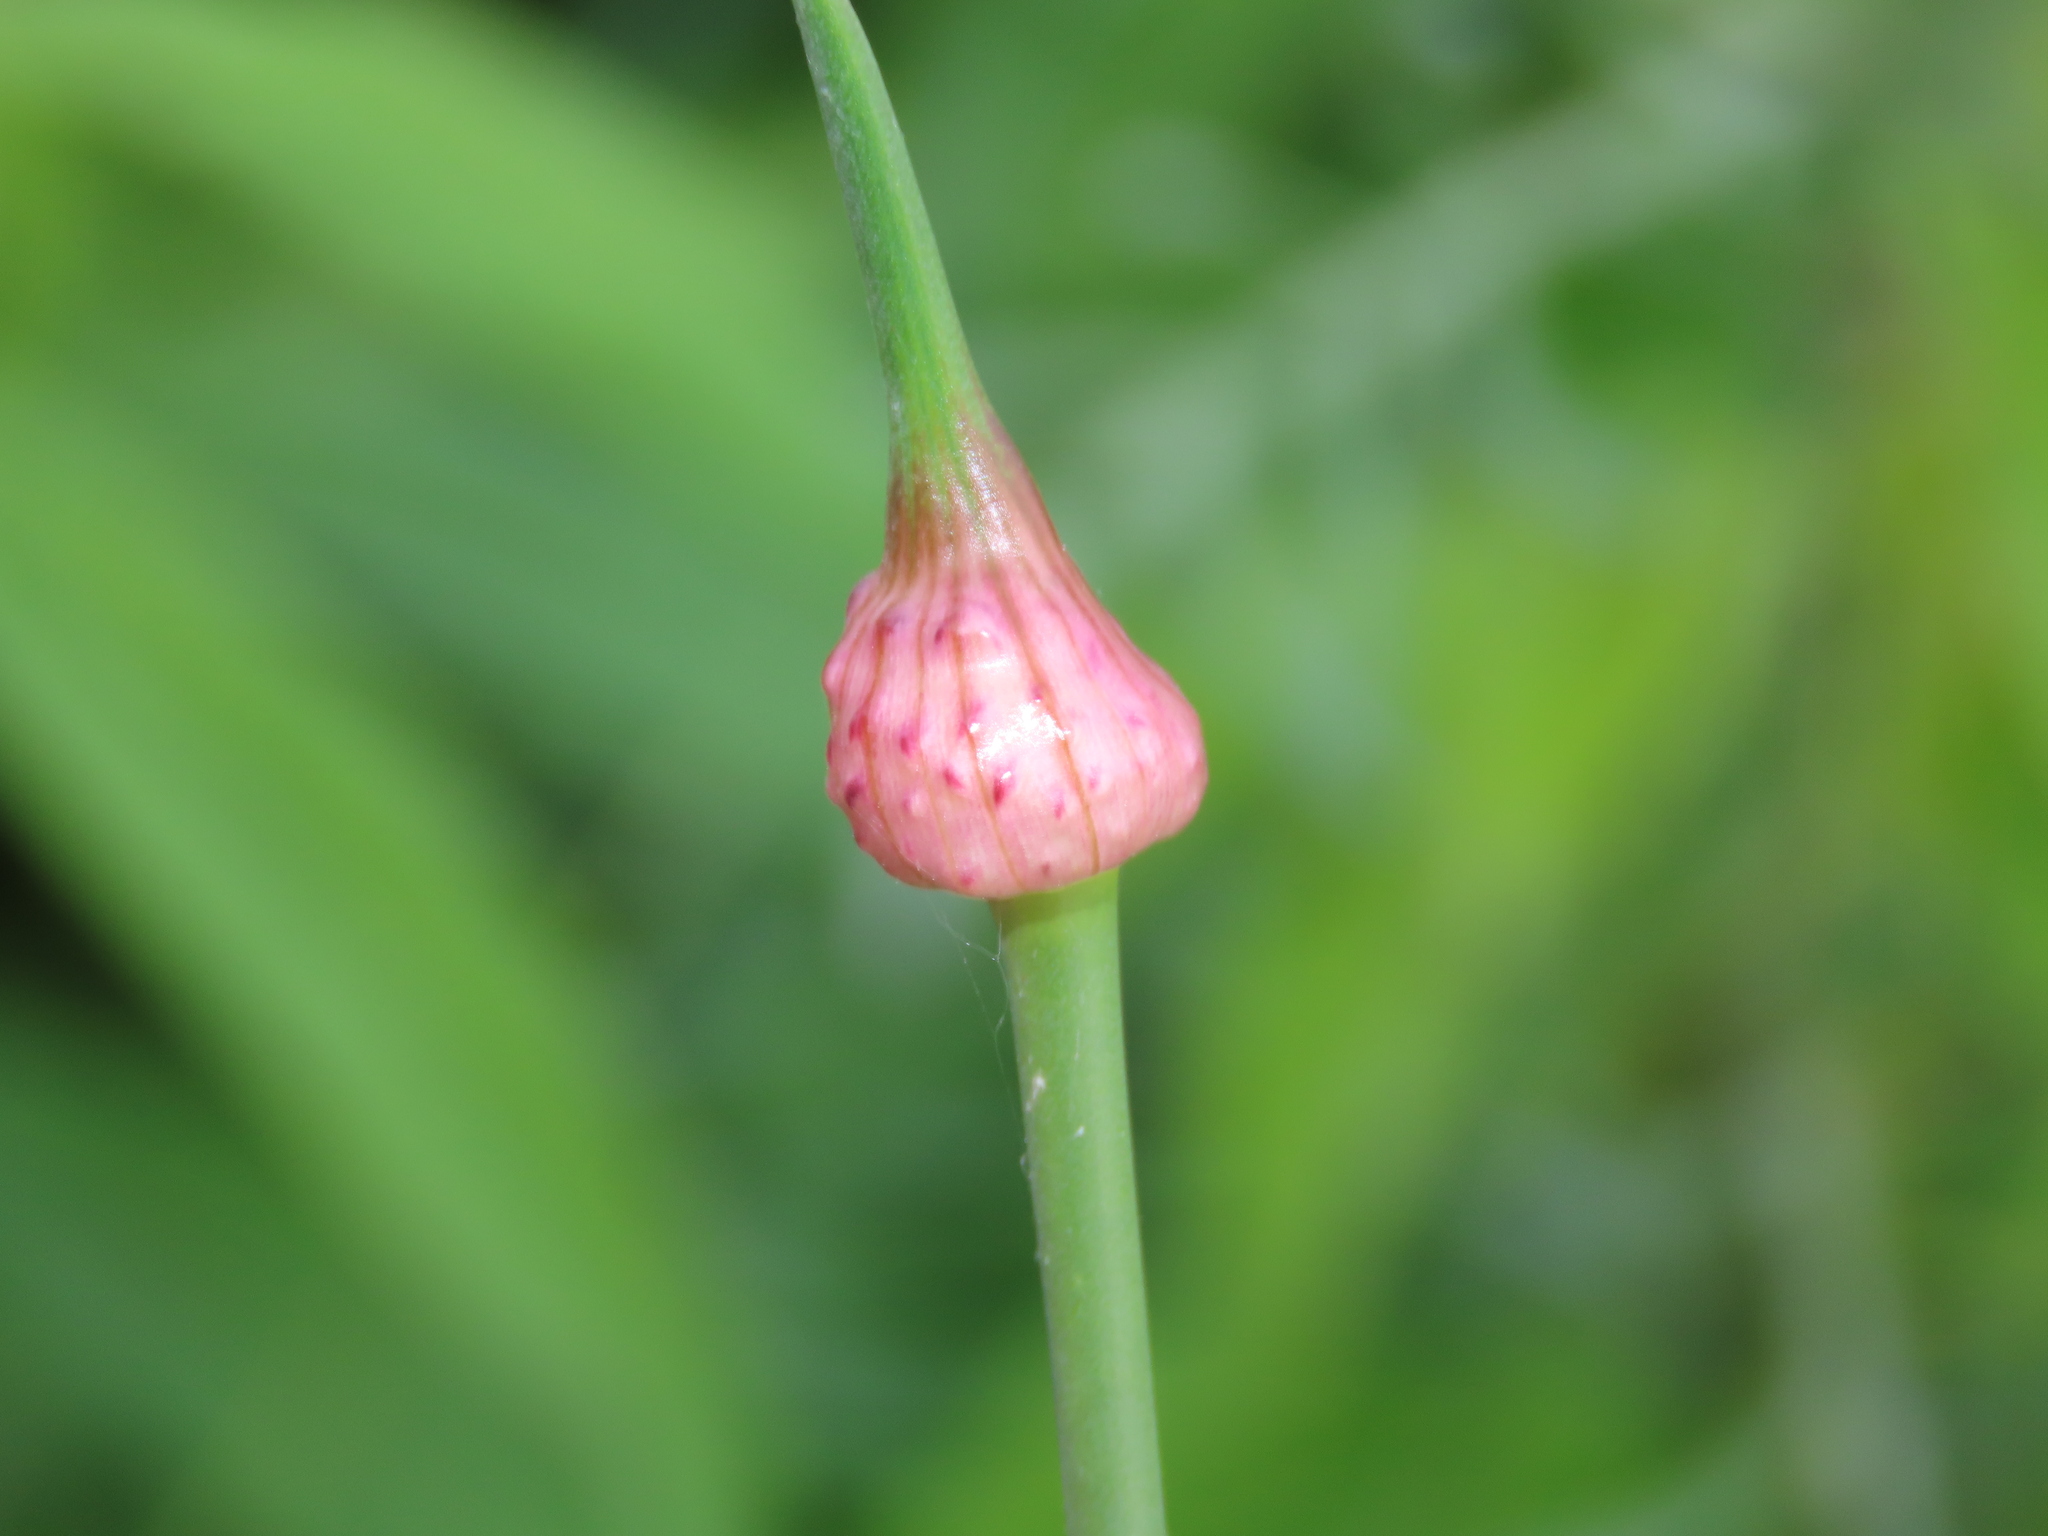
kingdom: Plantae
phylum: Tracheophyta
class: Liliopsida
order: Asparagales
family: Amaryllidaceae
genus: Allium
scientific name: Allium vineale
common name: Crow garlic
